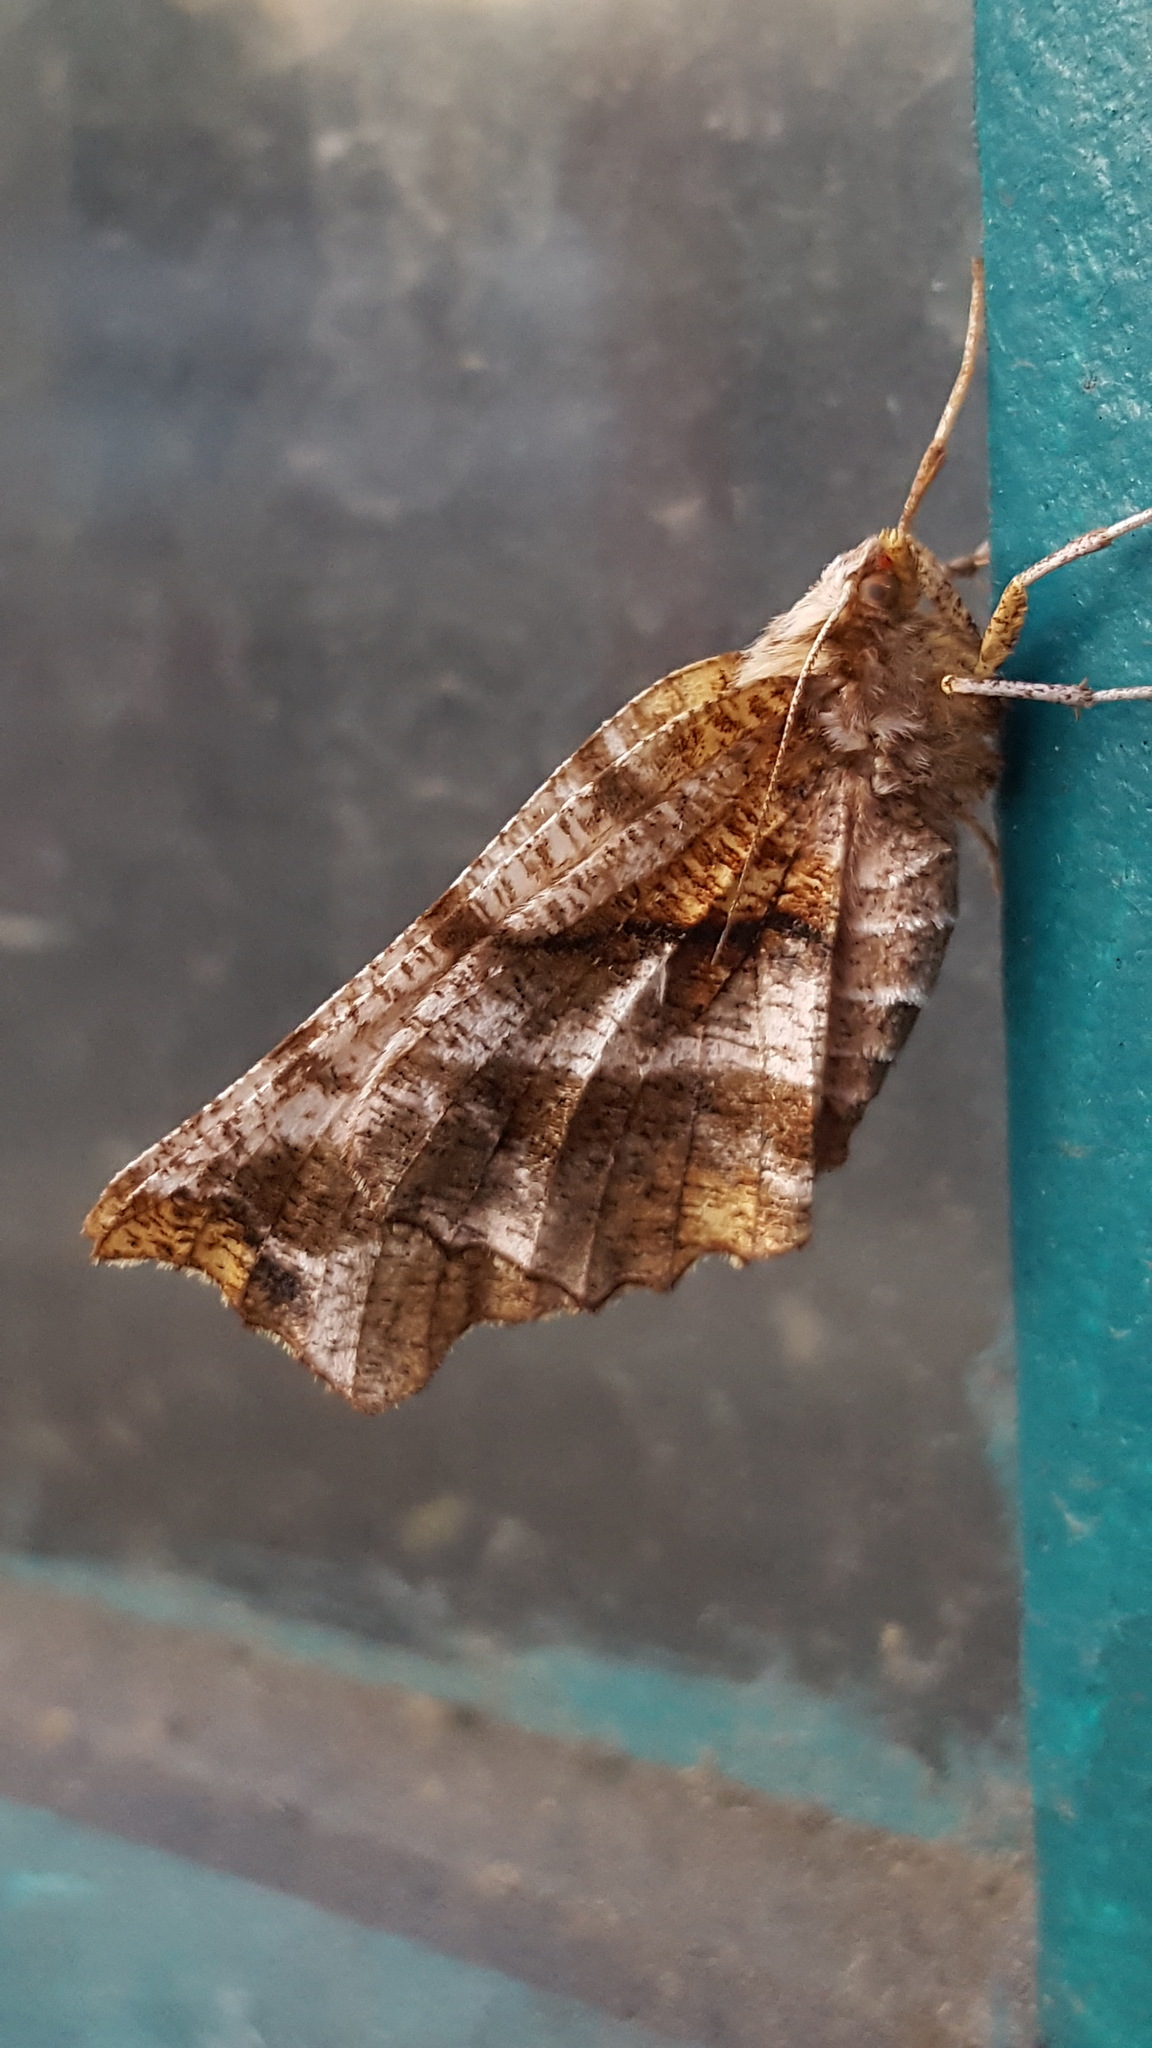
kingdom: Animalia
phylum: Arthropoda
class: Insecta
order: Lepidoptera
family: Geometridae
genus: Selenia
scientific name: Selenia alciphearia
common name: Brown-tipped thorn
